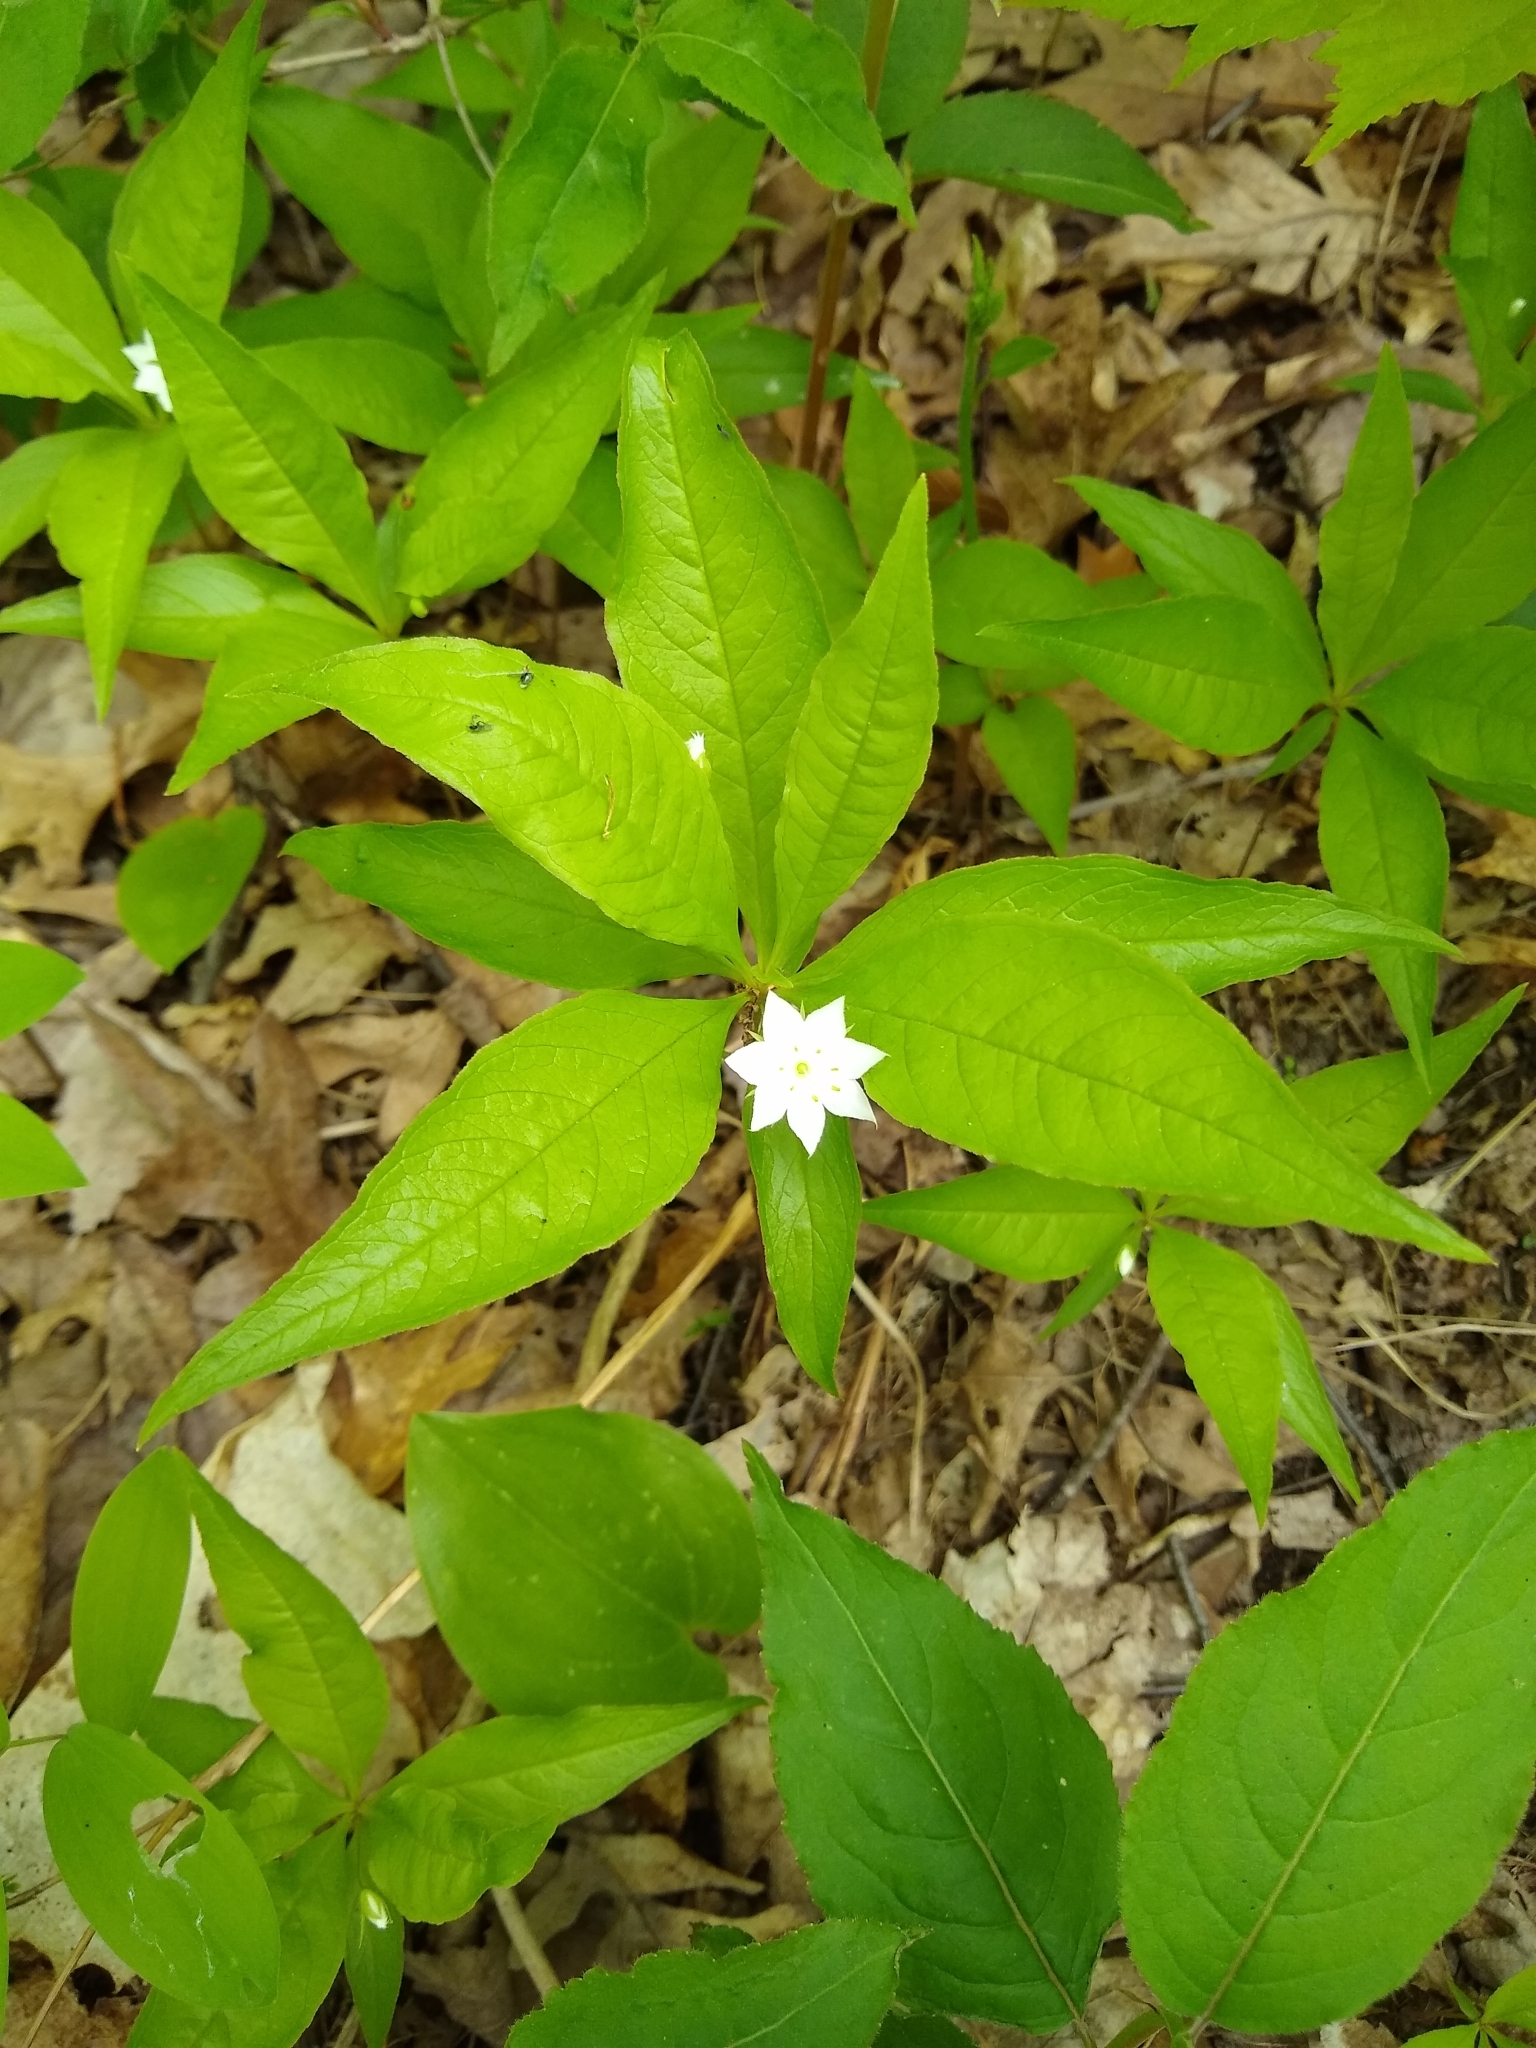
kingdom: Plantae
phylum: Tracheophyta
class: Magnoliopsida
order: Ericales
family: Primulaceae
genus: Lysimachia
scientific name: Lysimachia borealis
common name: American starflower
